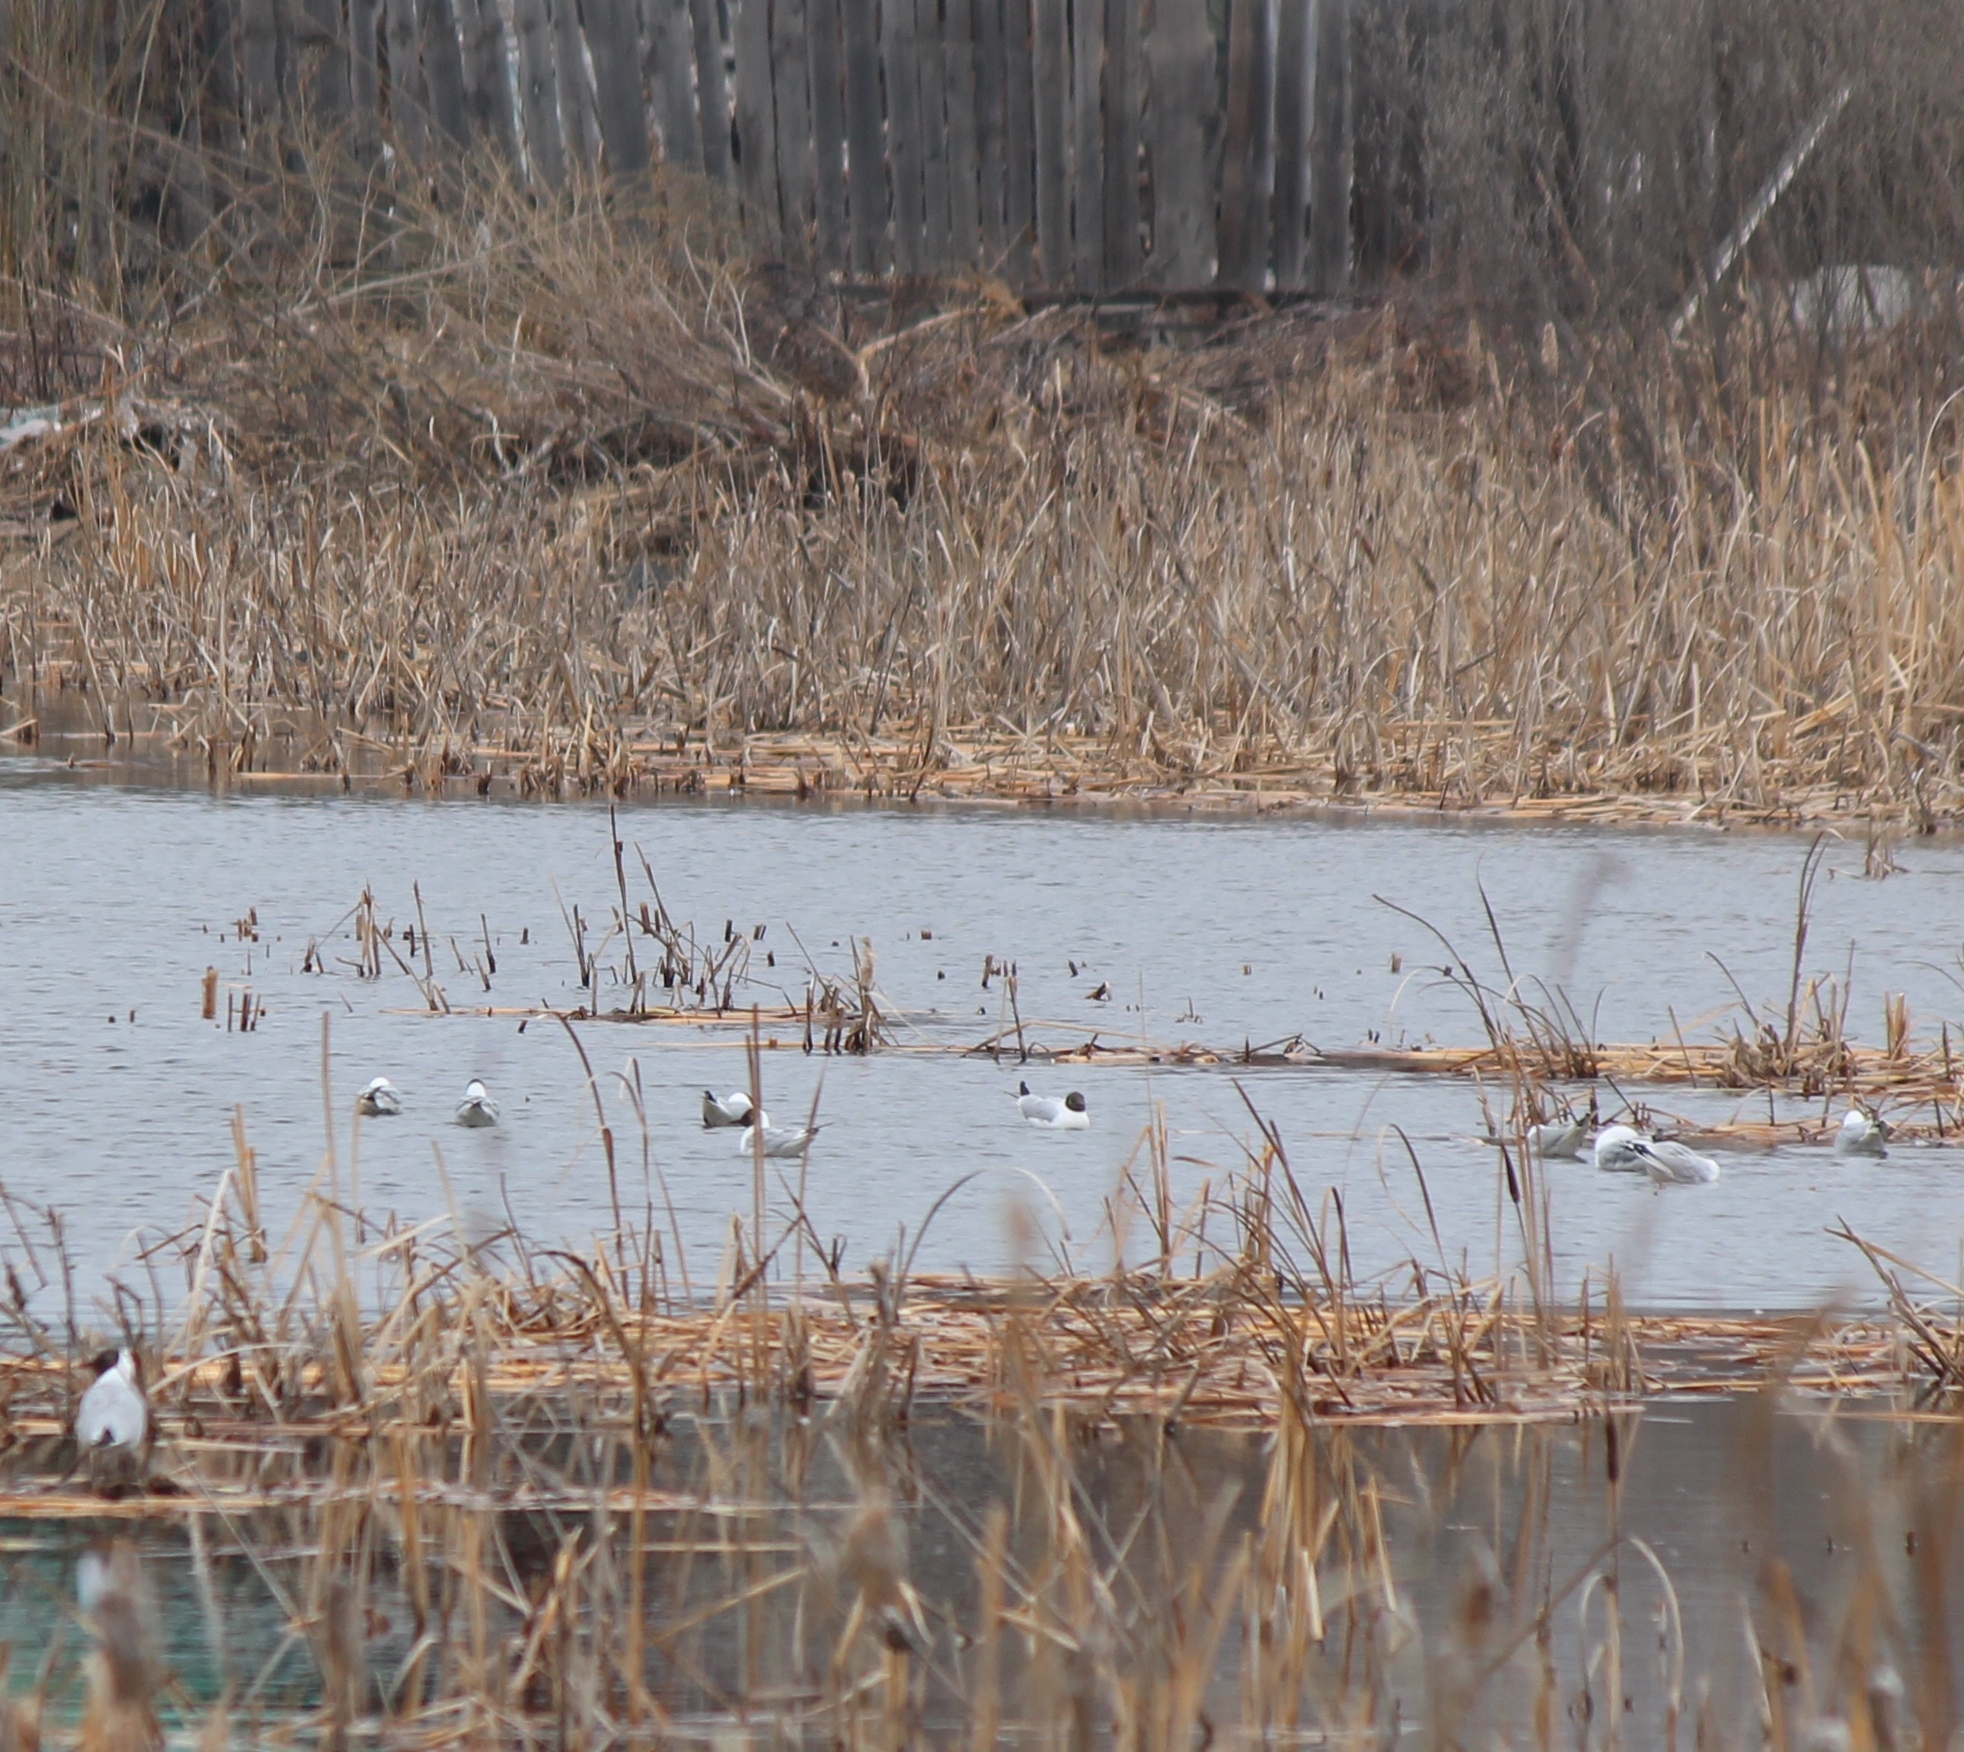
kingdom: Animalia
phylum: Chordata
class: Aves
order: Charadriiformes
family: Laridae
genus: Chroicocephalus
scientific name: Chroicocephalus ridibundus
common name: Black-headed gull
